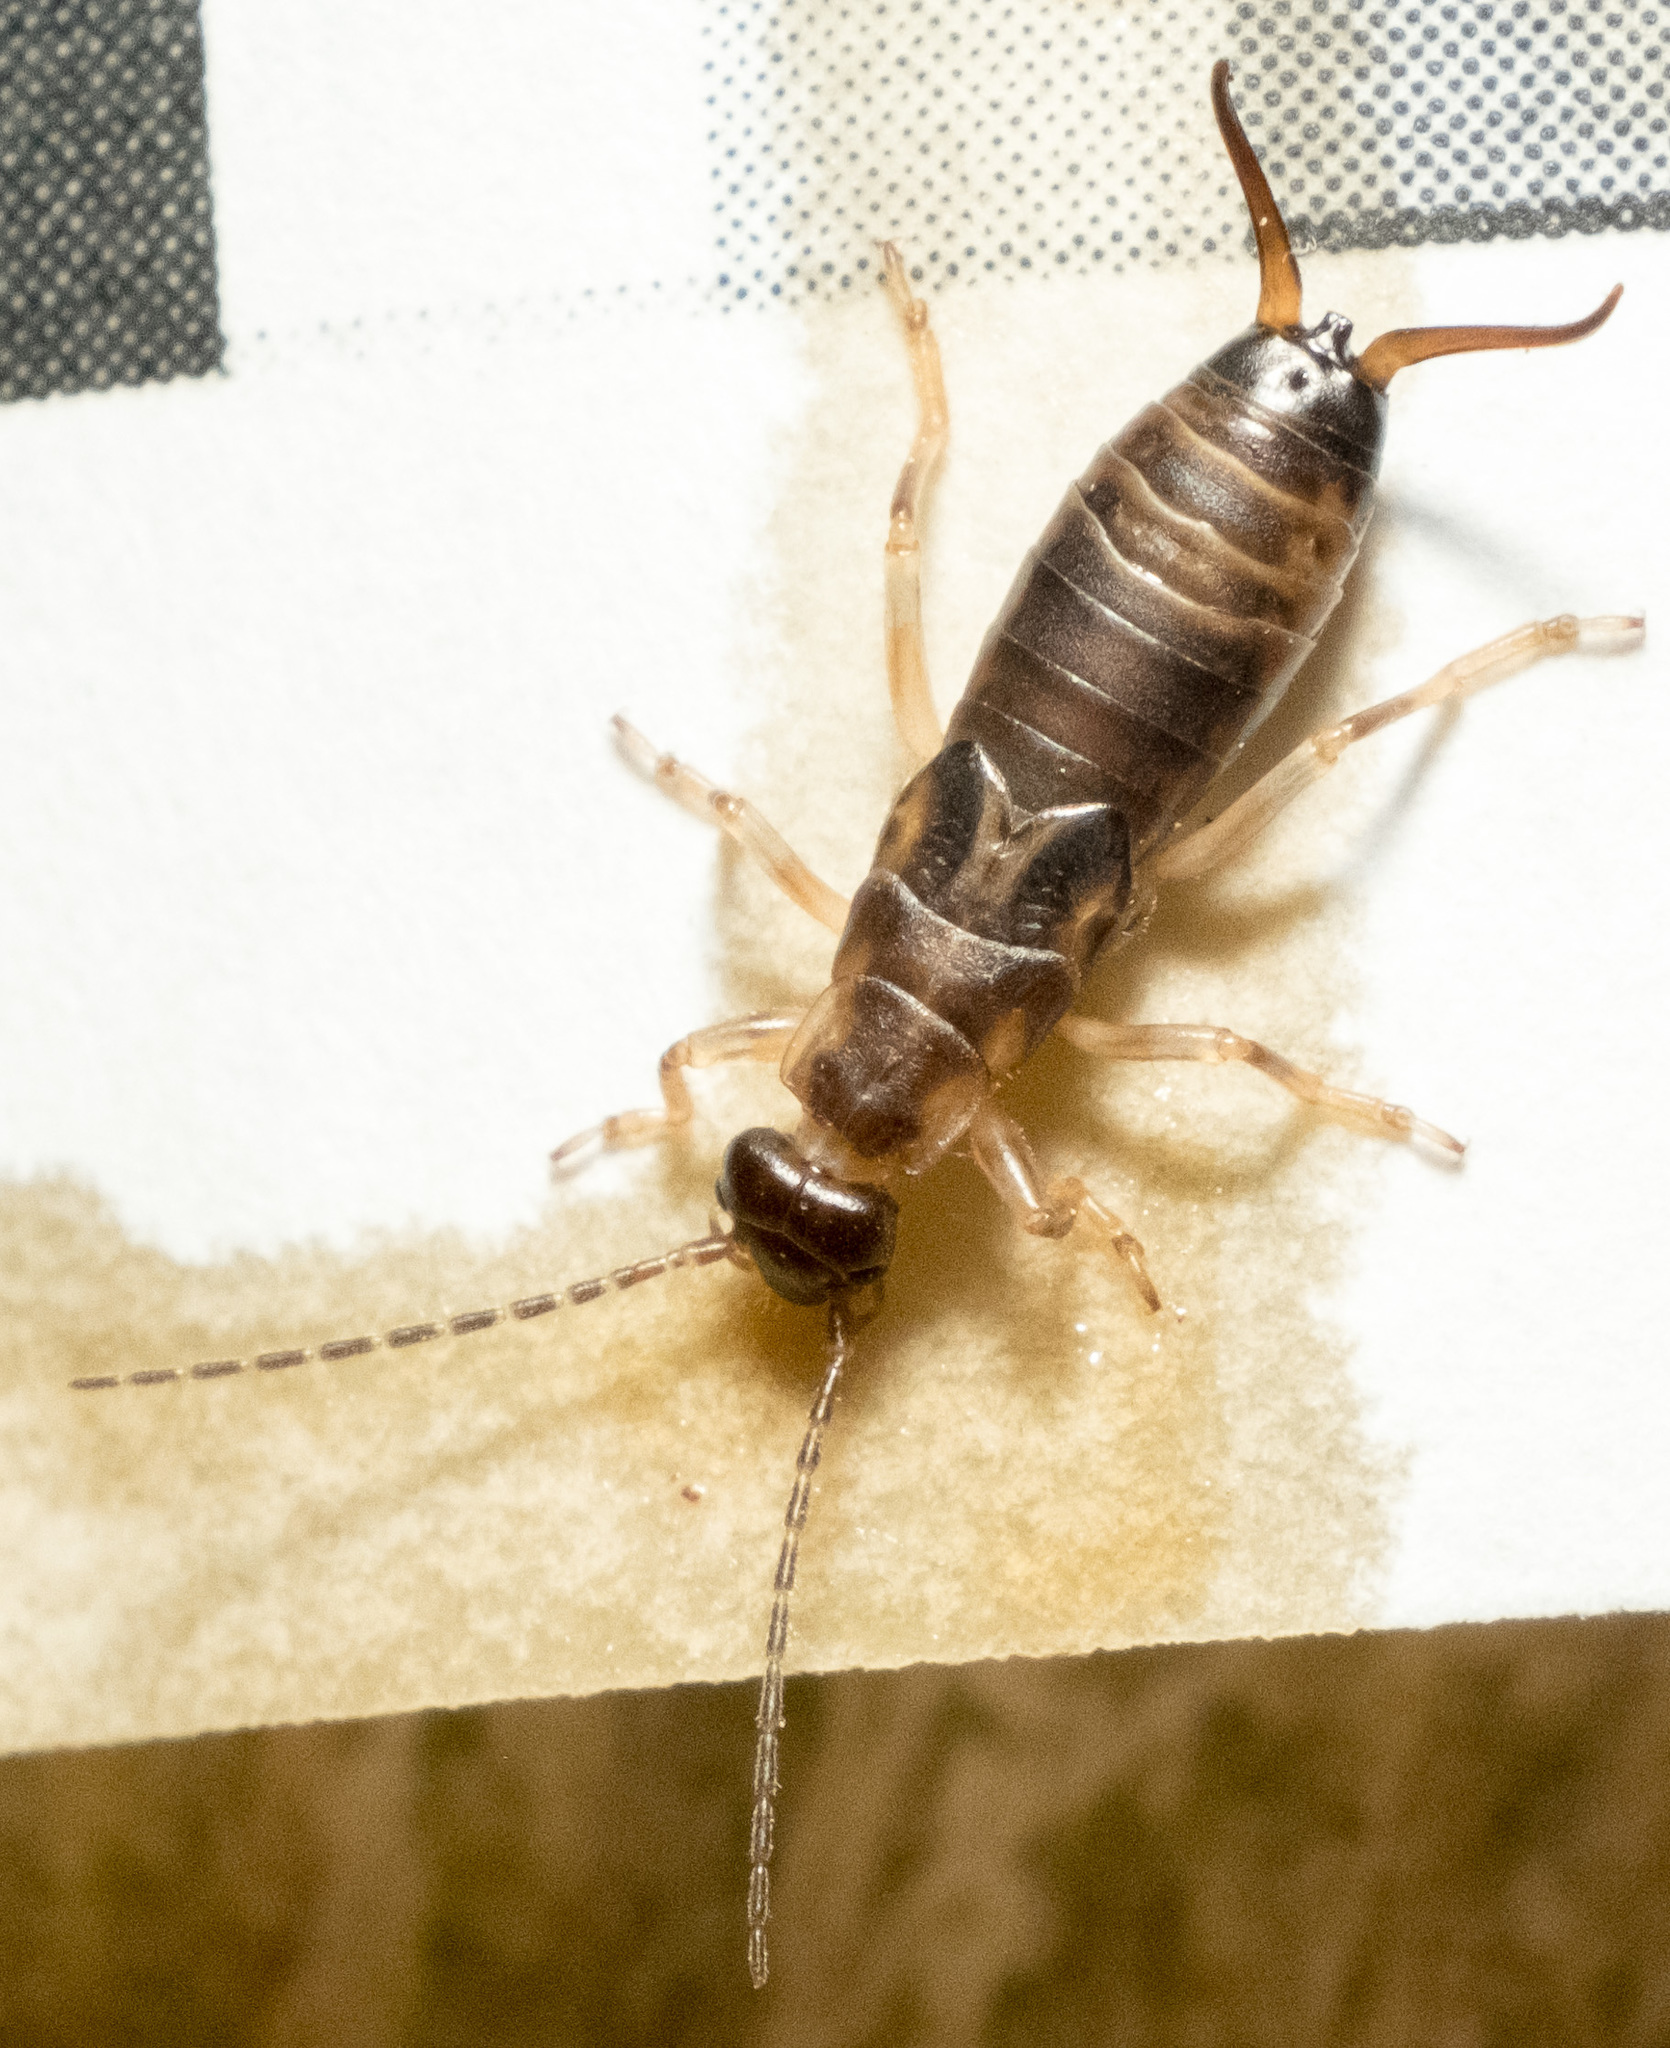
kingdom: Animalia
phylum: Arthropoda
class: Insecta
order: Dermaptera
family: Forficulidae
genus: Forficula
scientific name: Forficula
